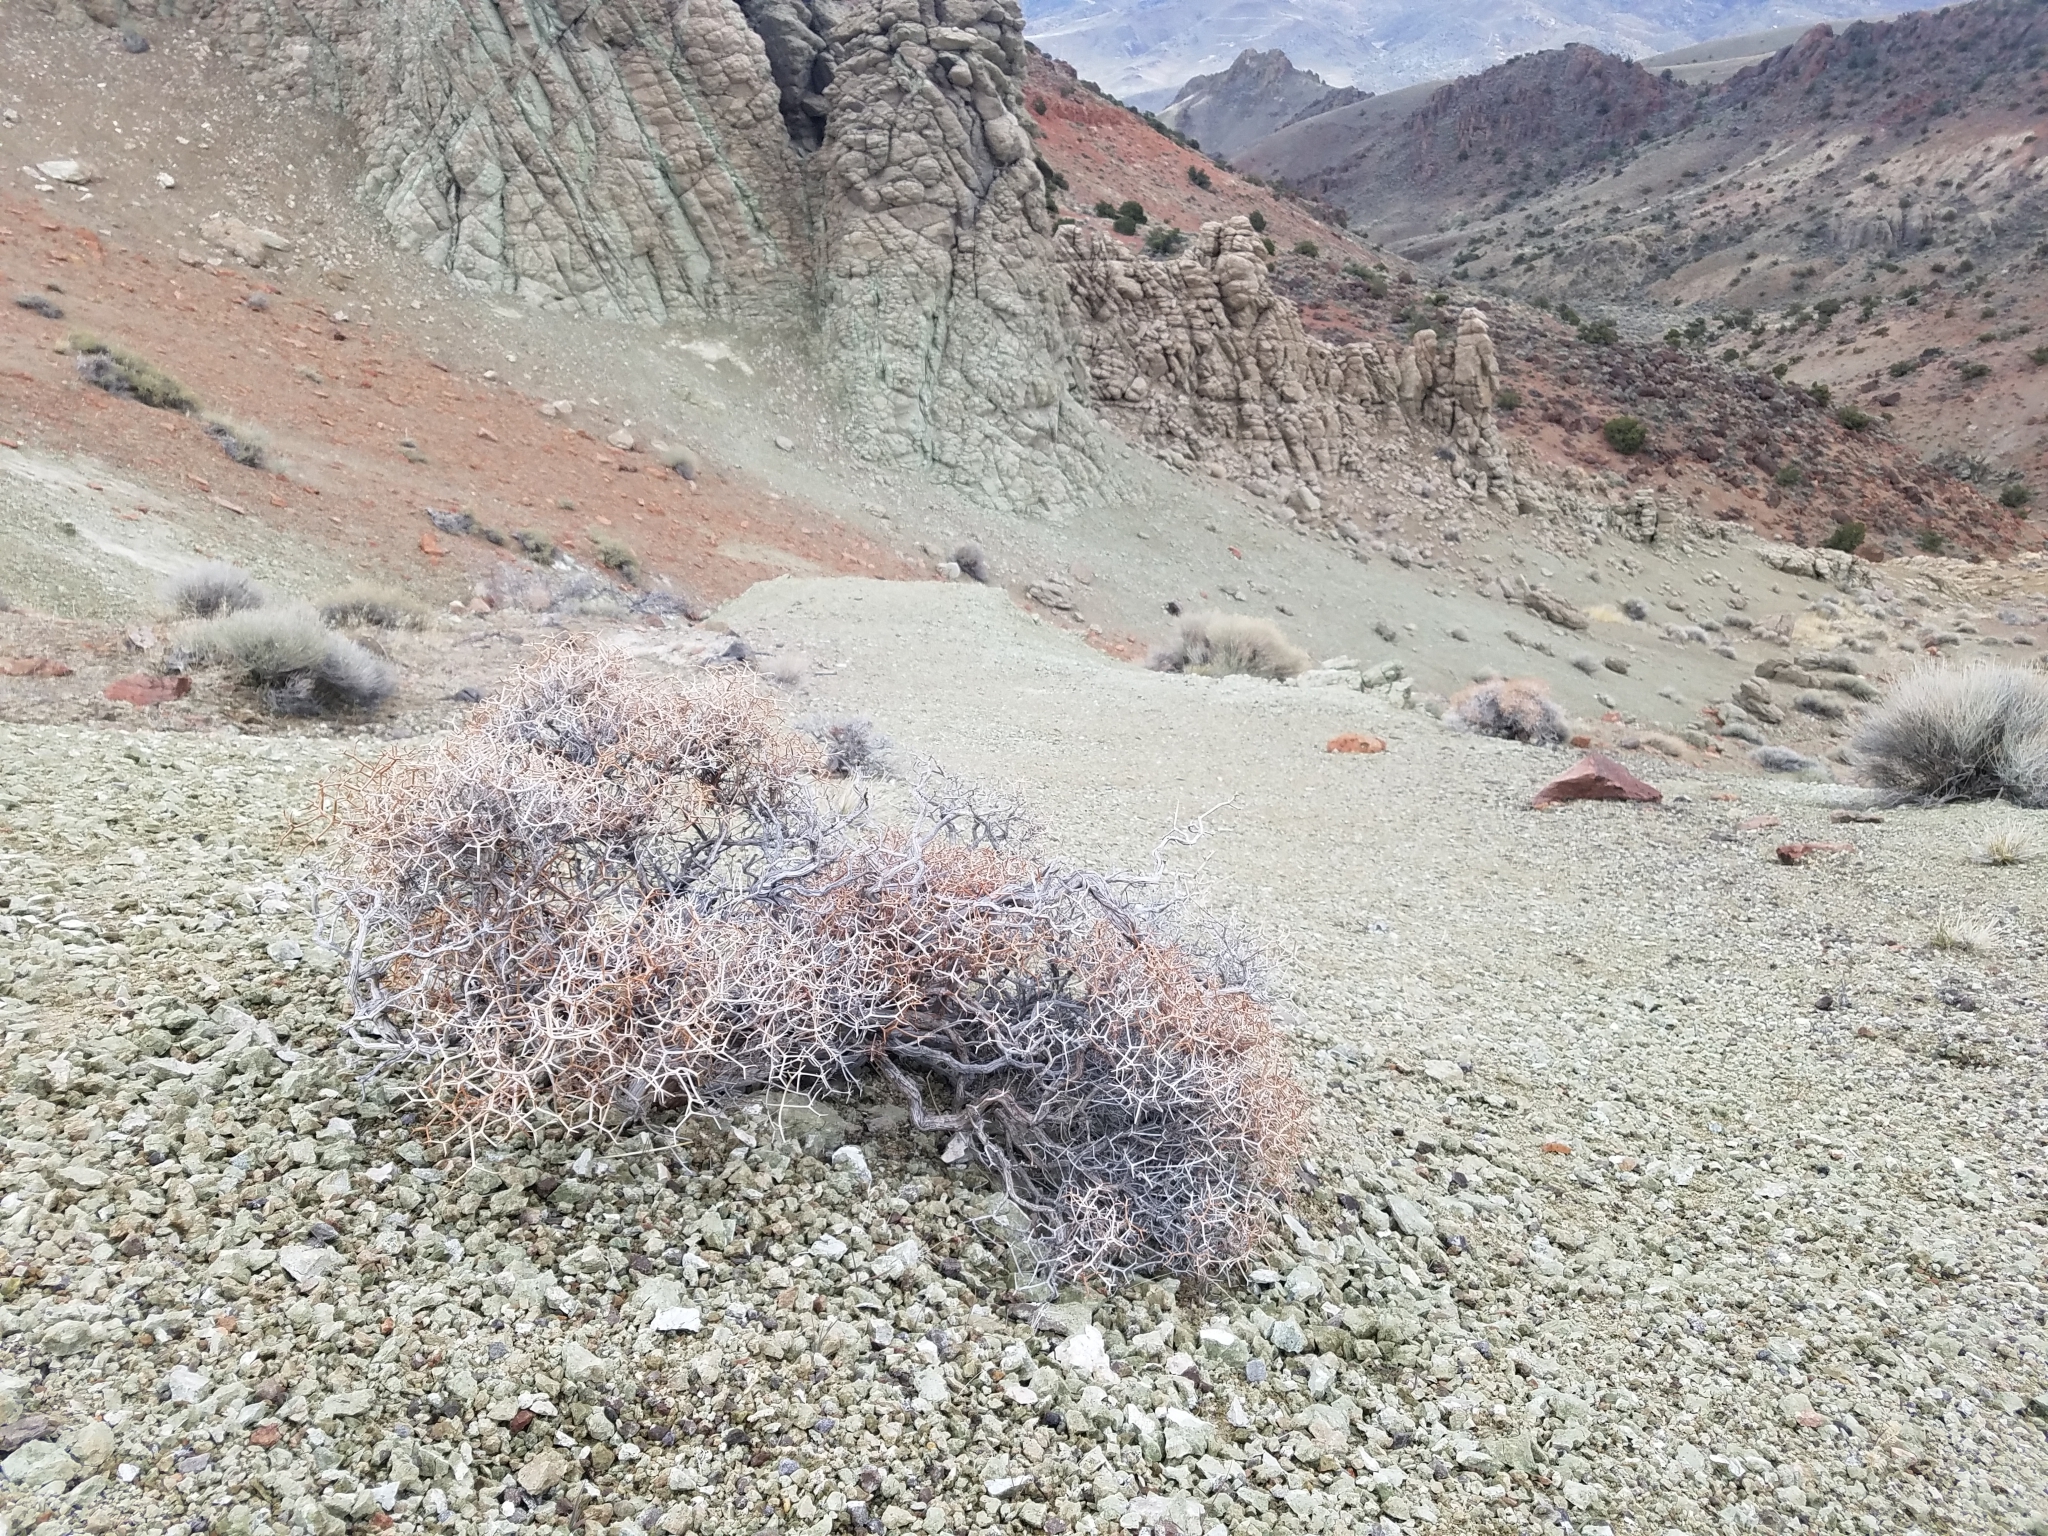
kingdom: Plantae
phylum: Tracheophyta
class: Magnoliopsida
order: Caryophyllales
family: Polygonaceae
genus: Eriogonum
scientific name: Eriogonum heermannii
